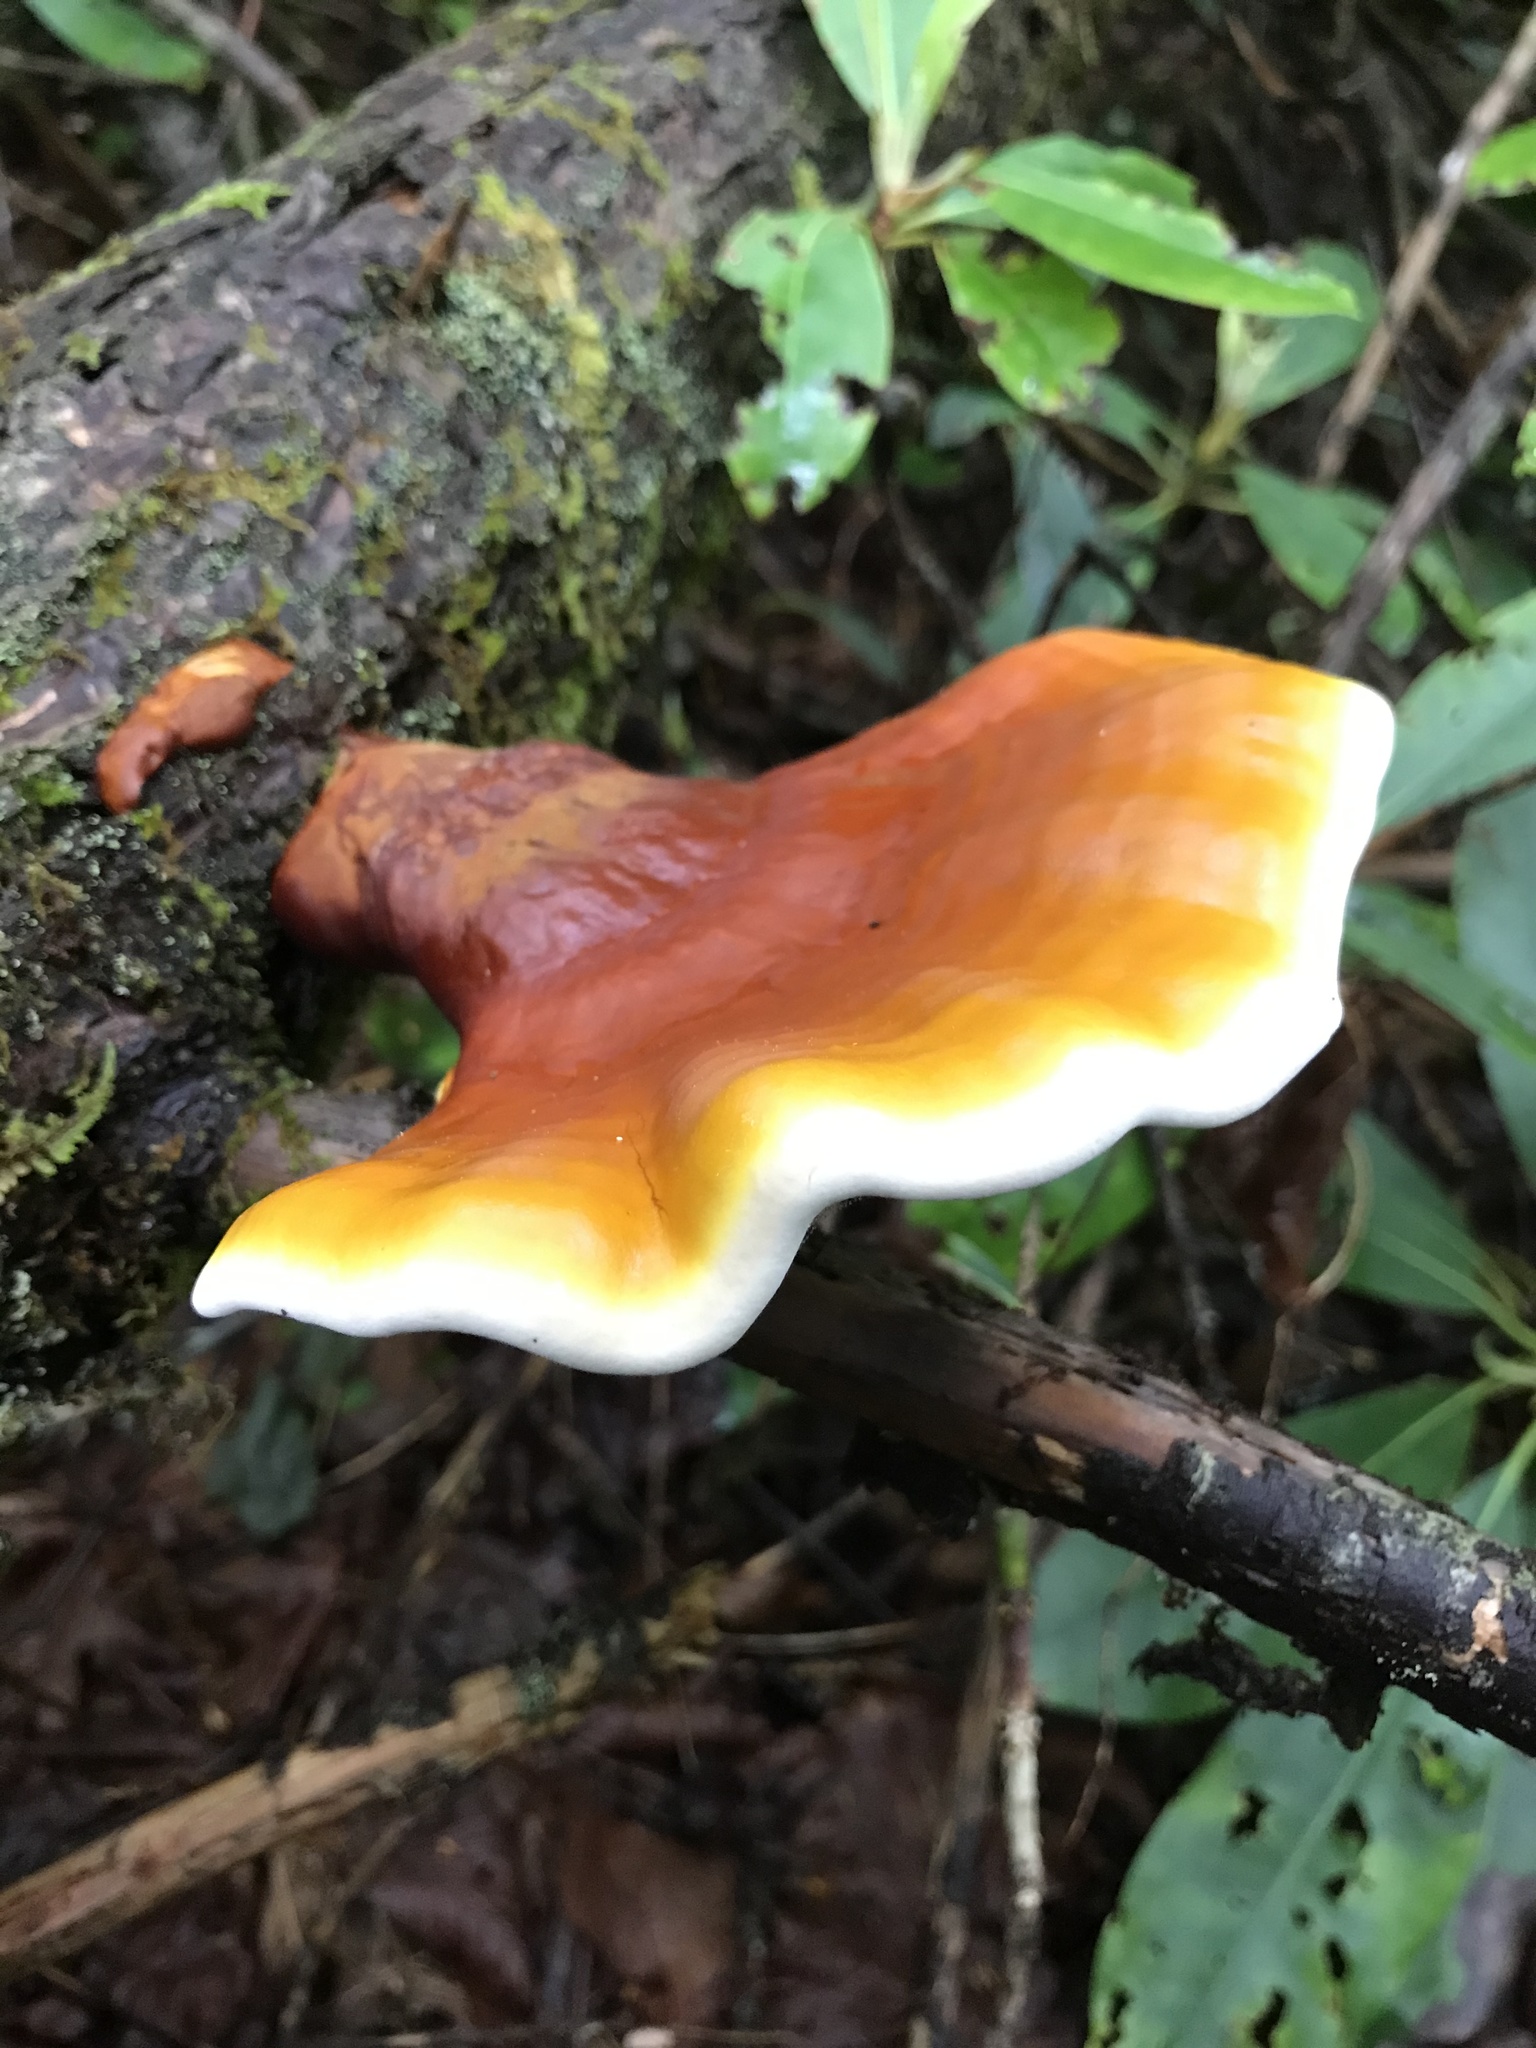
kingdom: Fungi
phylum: Basidiomycota
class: Agaricomycetes
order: Polyporales
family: Polyporaceae
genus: Ganoderma
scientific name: Ganoderma tsugae
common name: Hemlock varnish shelf
